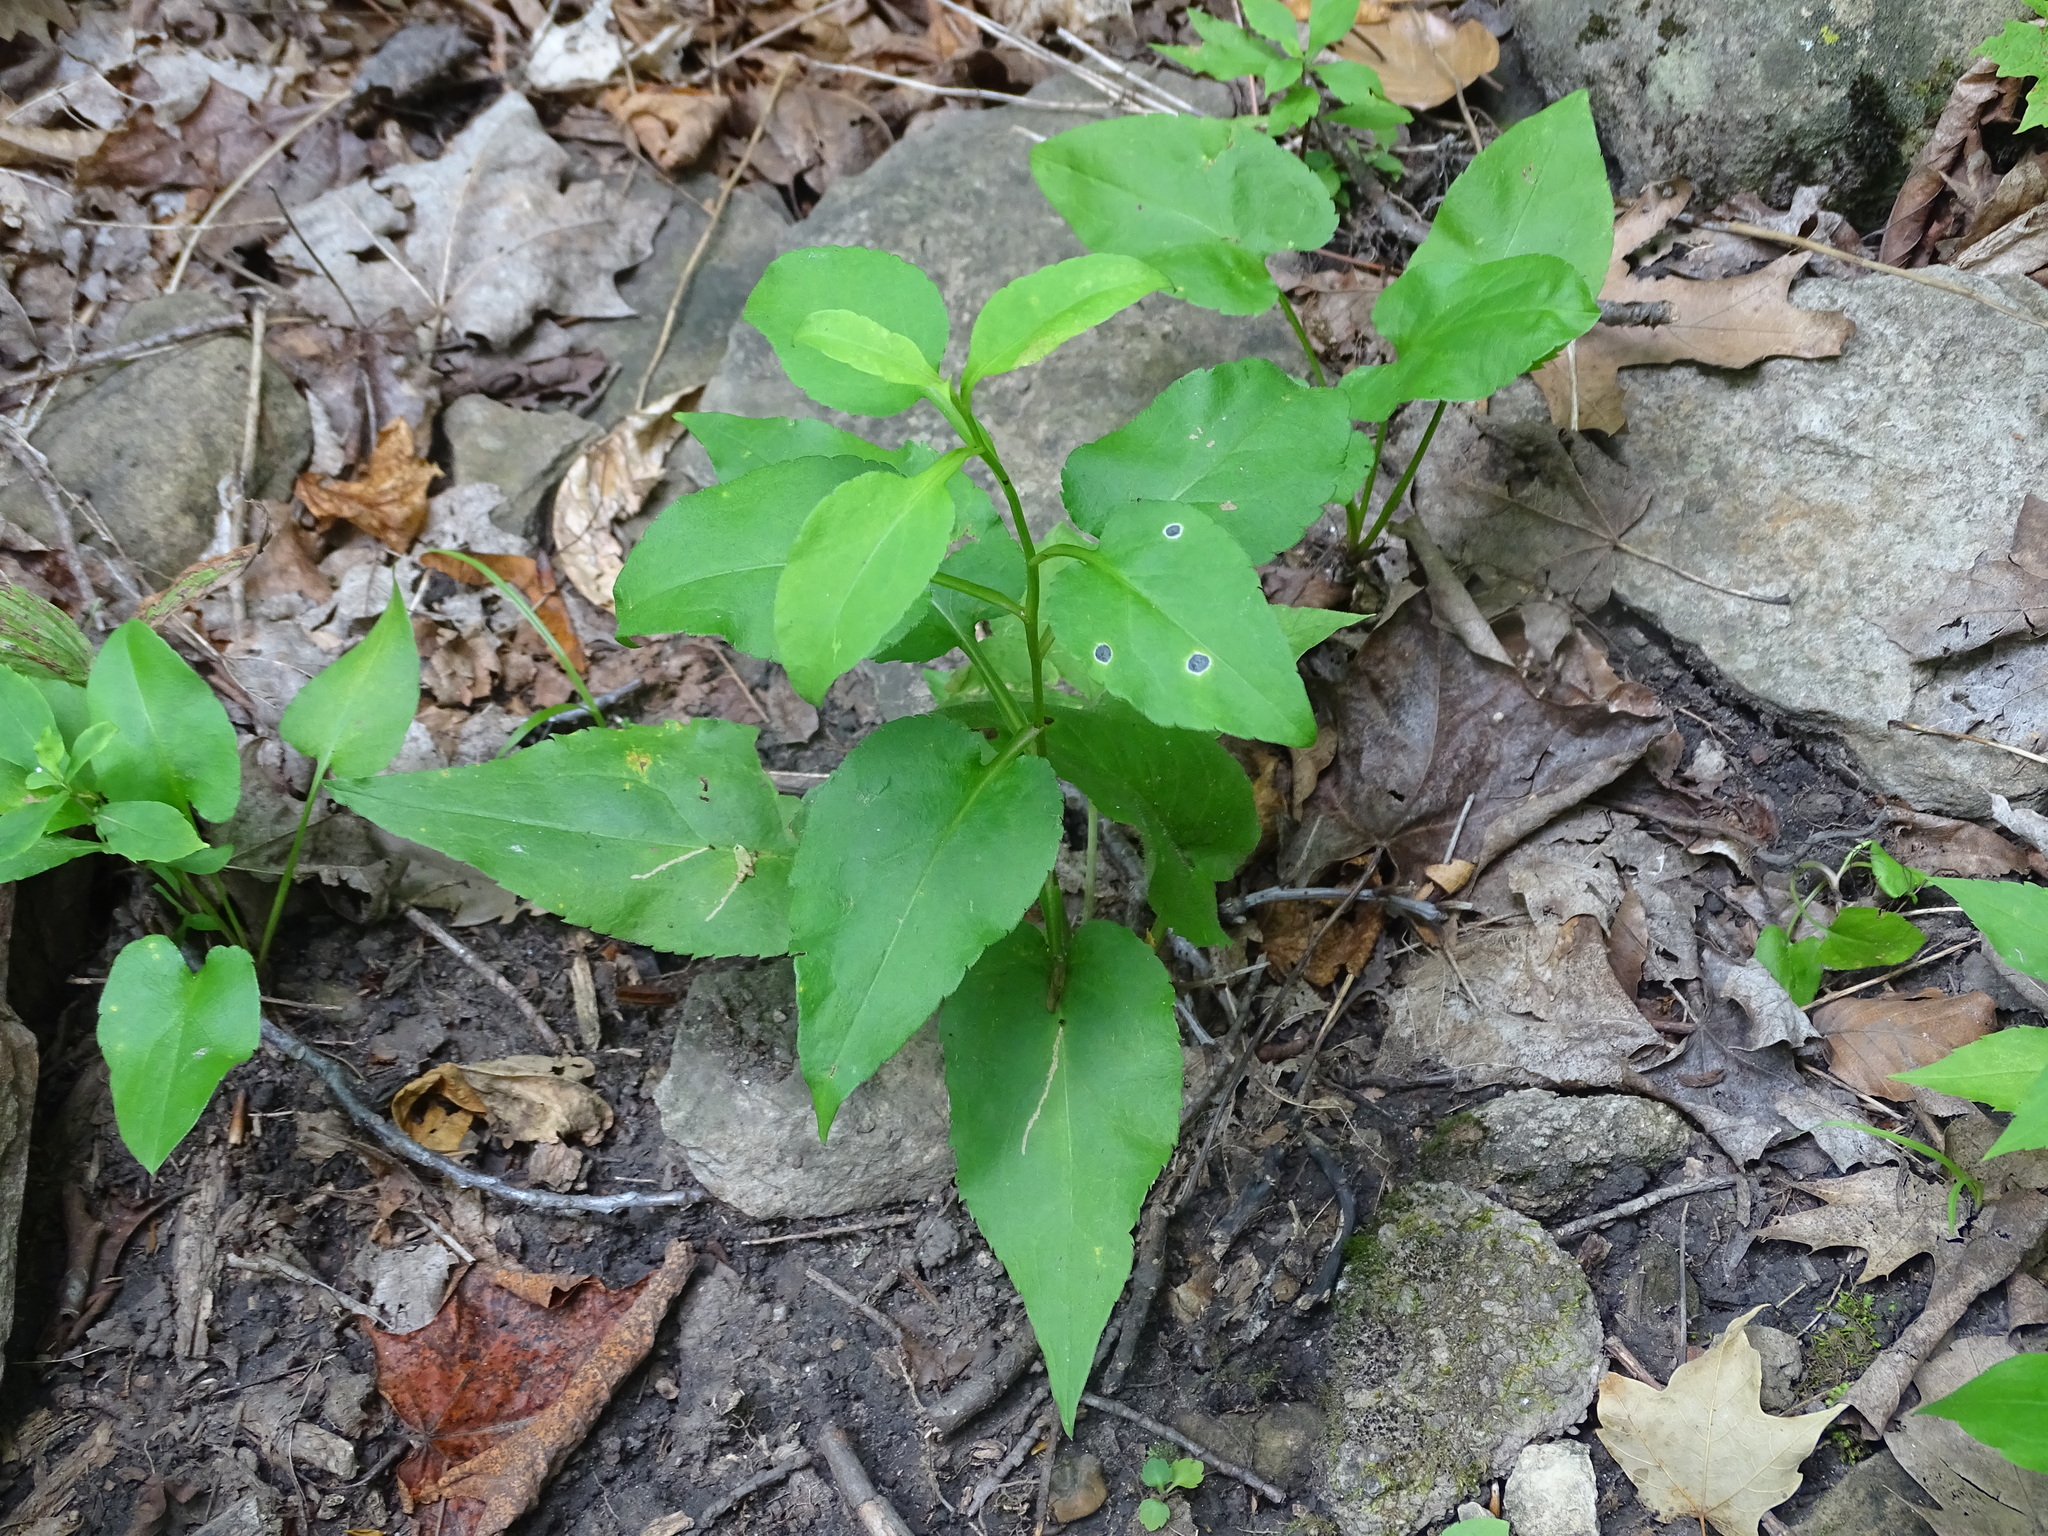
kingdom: Plantae
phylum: Tracheophyta
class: Magnoliopsida
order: Asterales
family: Asteraceae
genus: Symphyotrichum
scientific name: Symphyotrichum urophyllum
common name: Arrow-leaved aster
